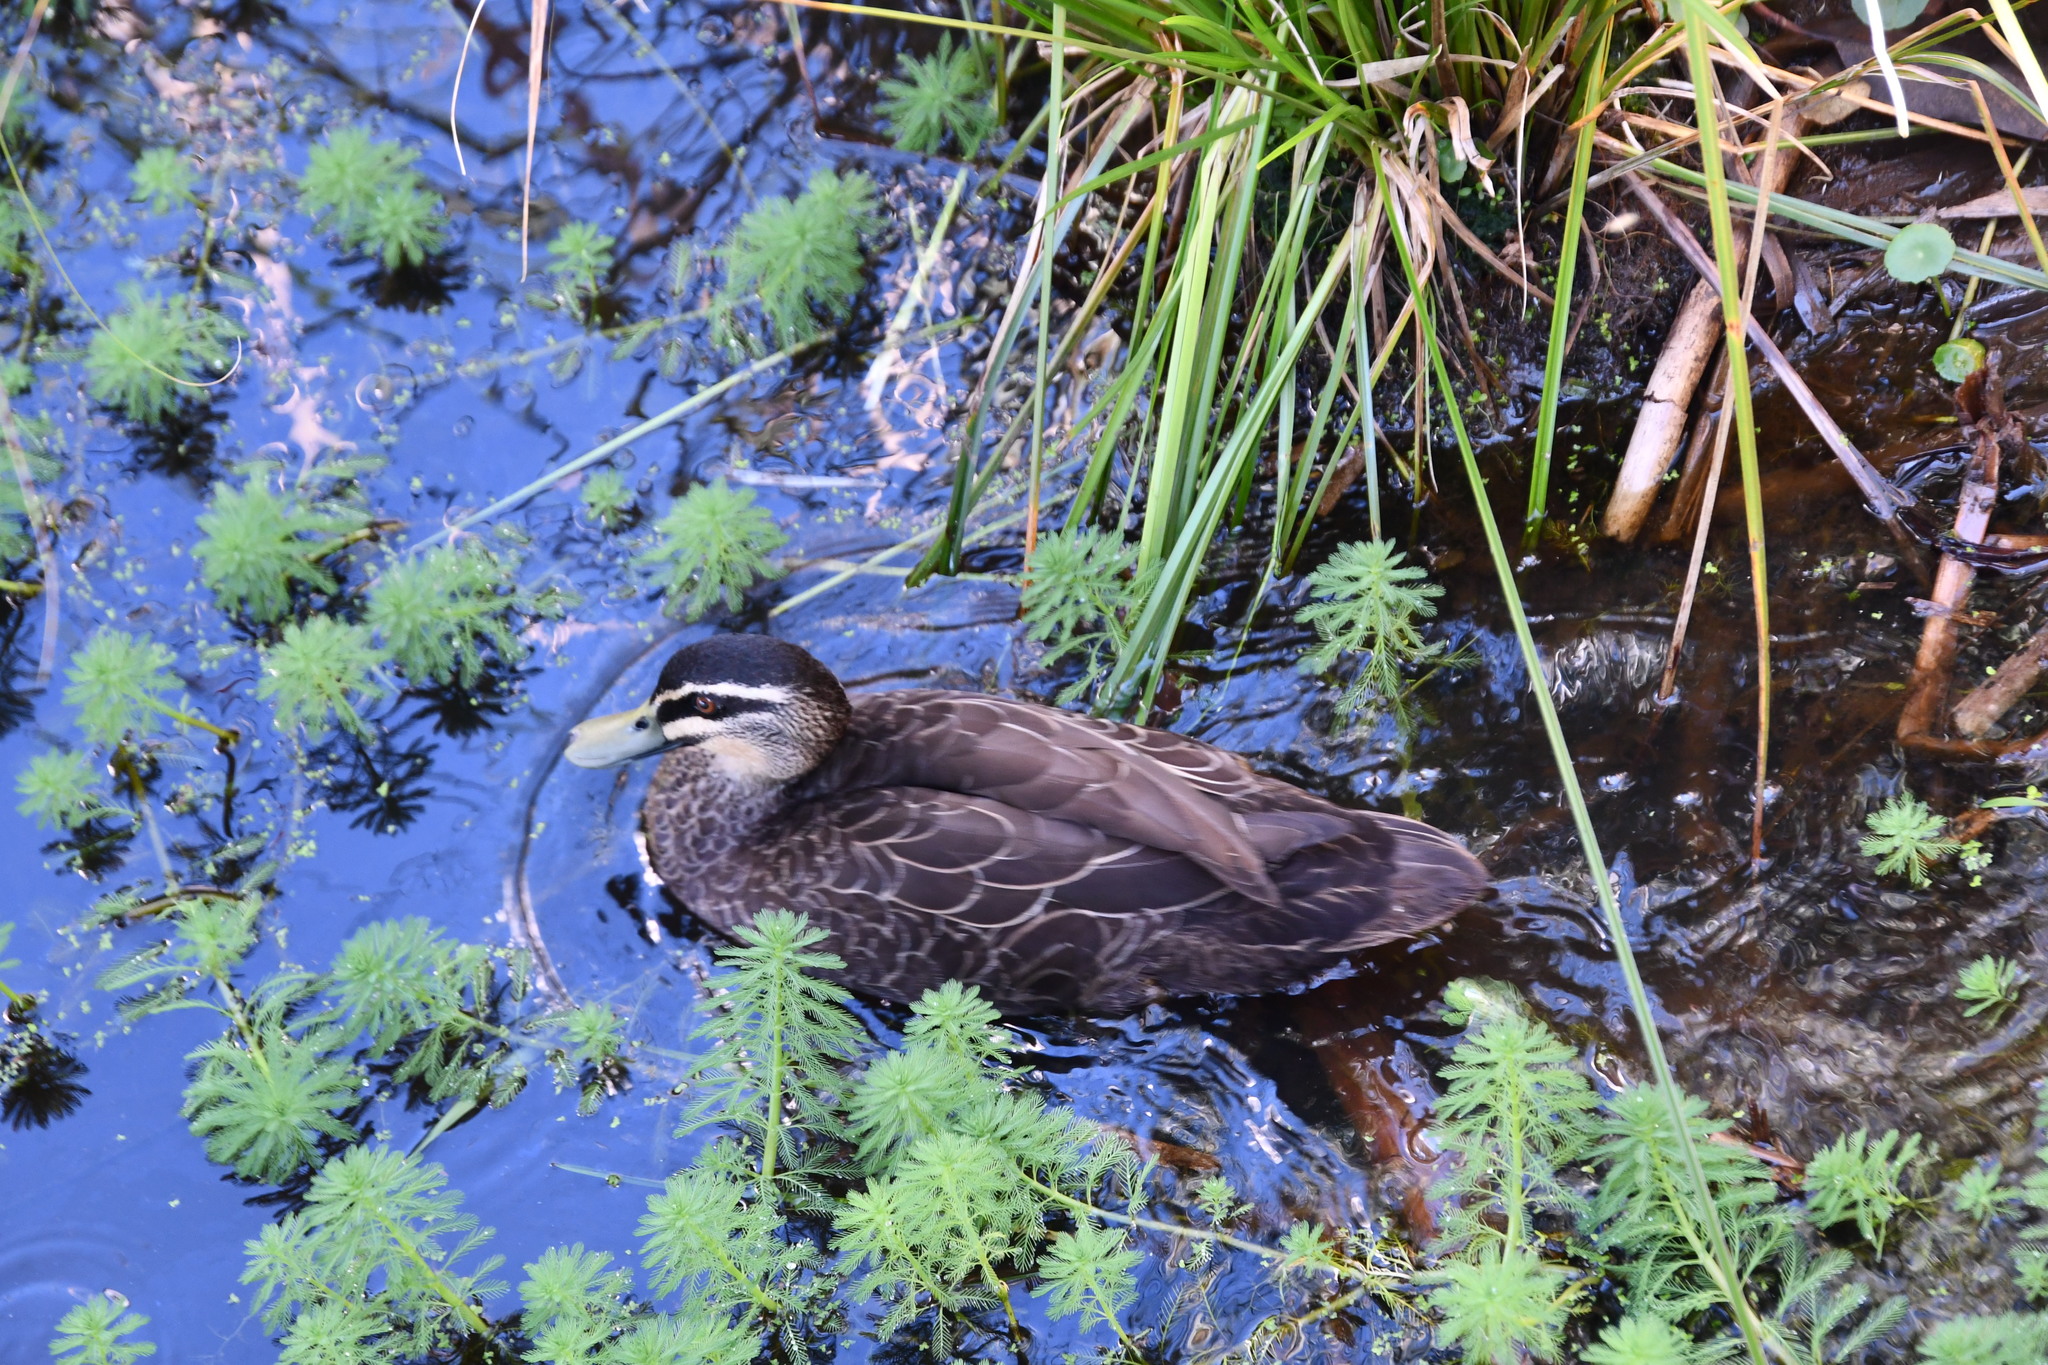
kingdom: Animalia
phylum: Chordata
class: Aves
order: Anseriformes
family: Anatidae
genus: Anas
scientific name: Anas
